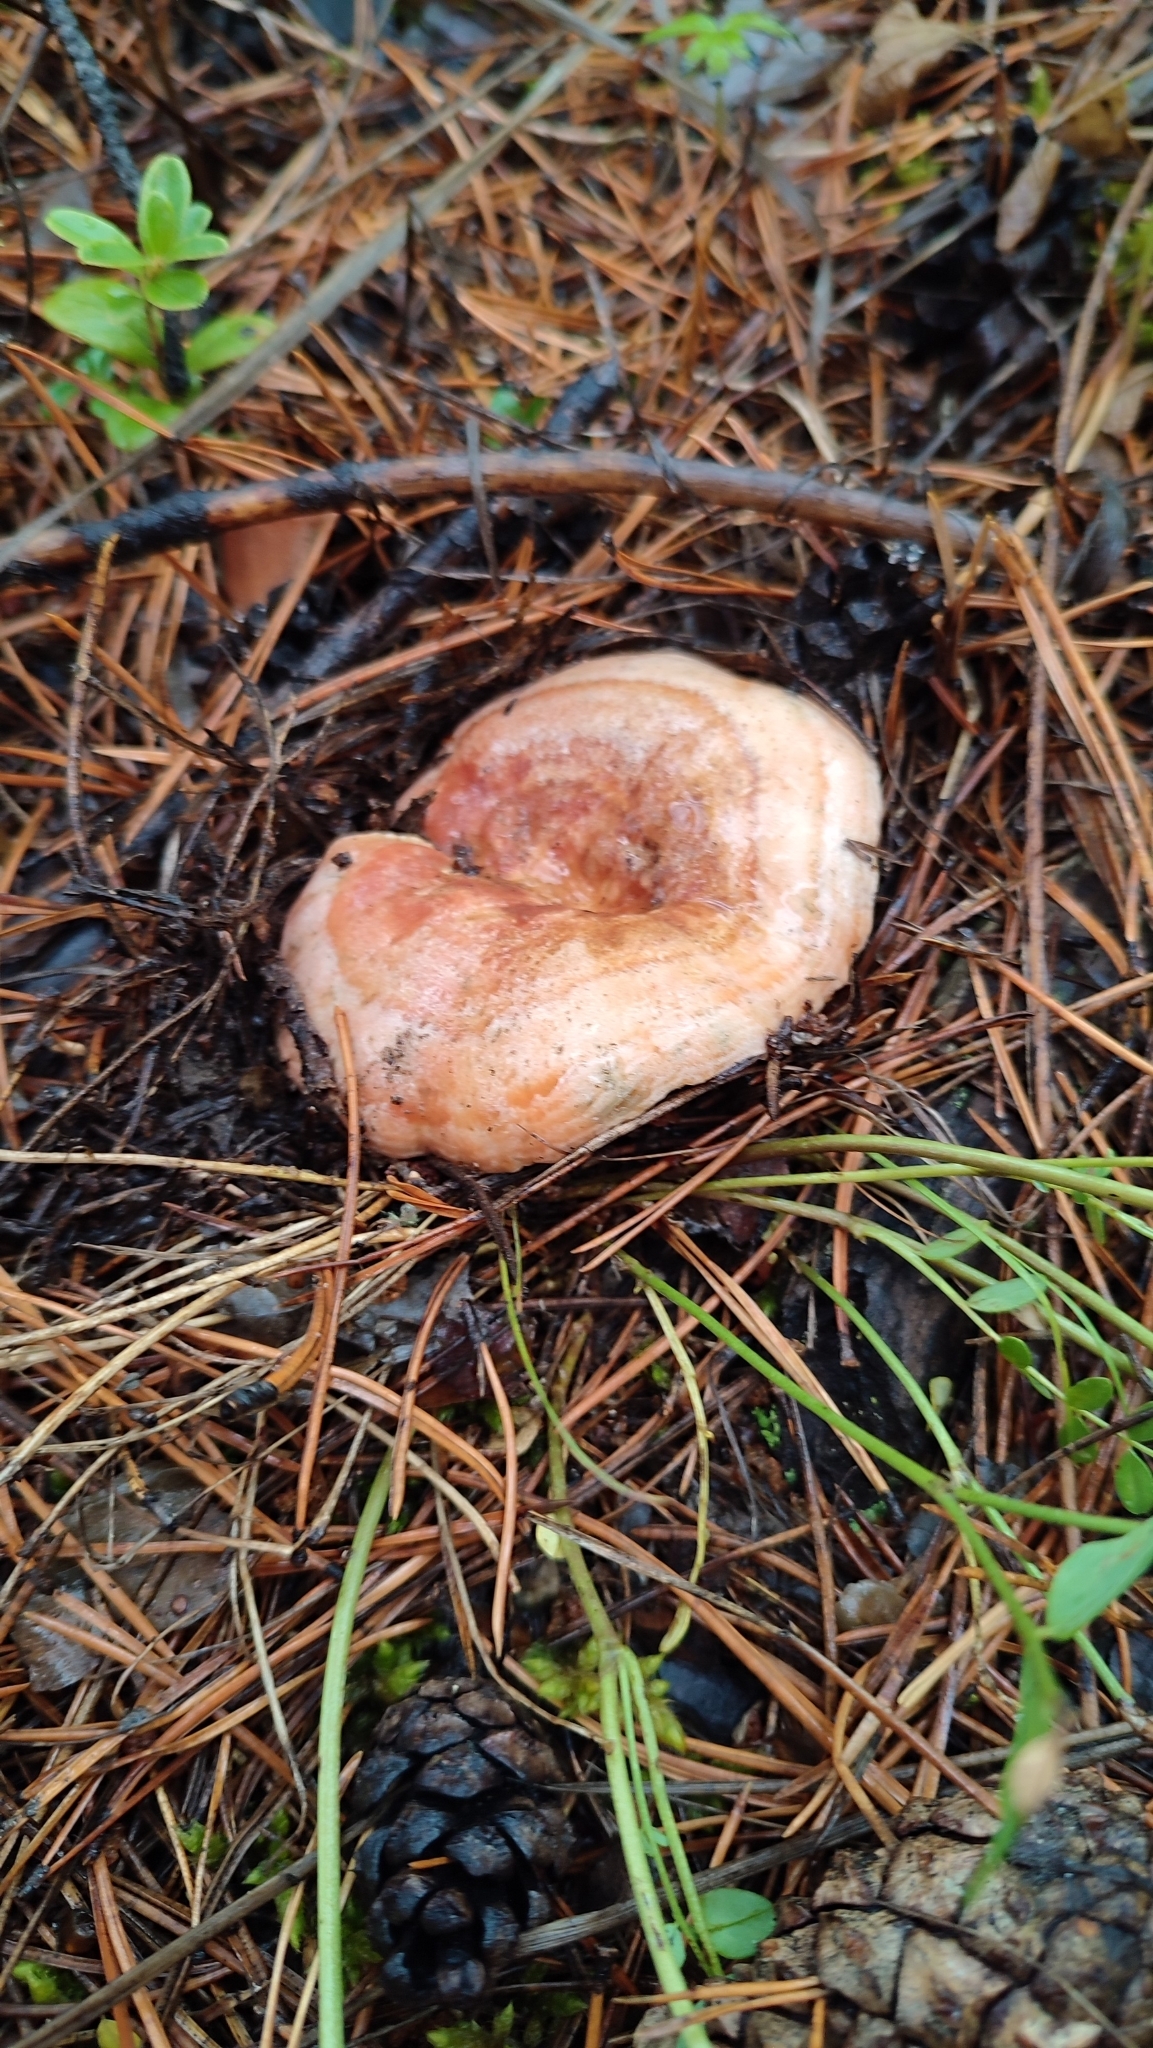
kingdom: Fungi
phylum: Basidiomycota
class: Agaricomycetes
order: Russulales
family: Russulaceae
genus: Lactarius
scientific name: Lactarius deliciosus
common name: Saffron milk-cap
